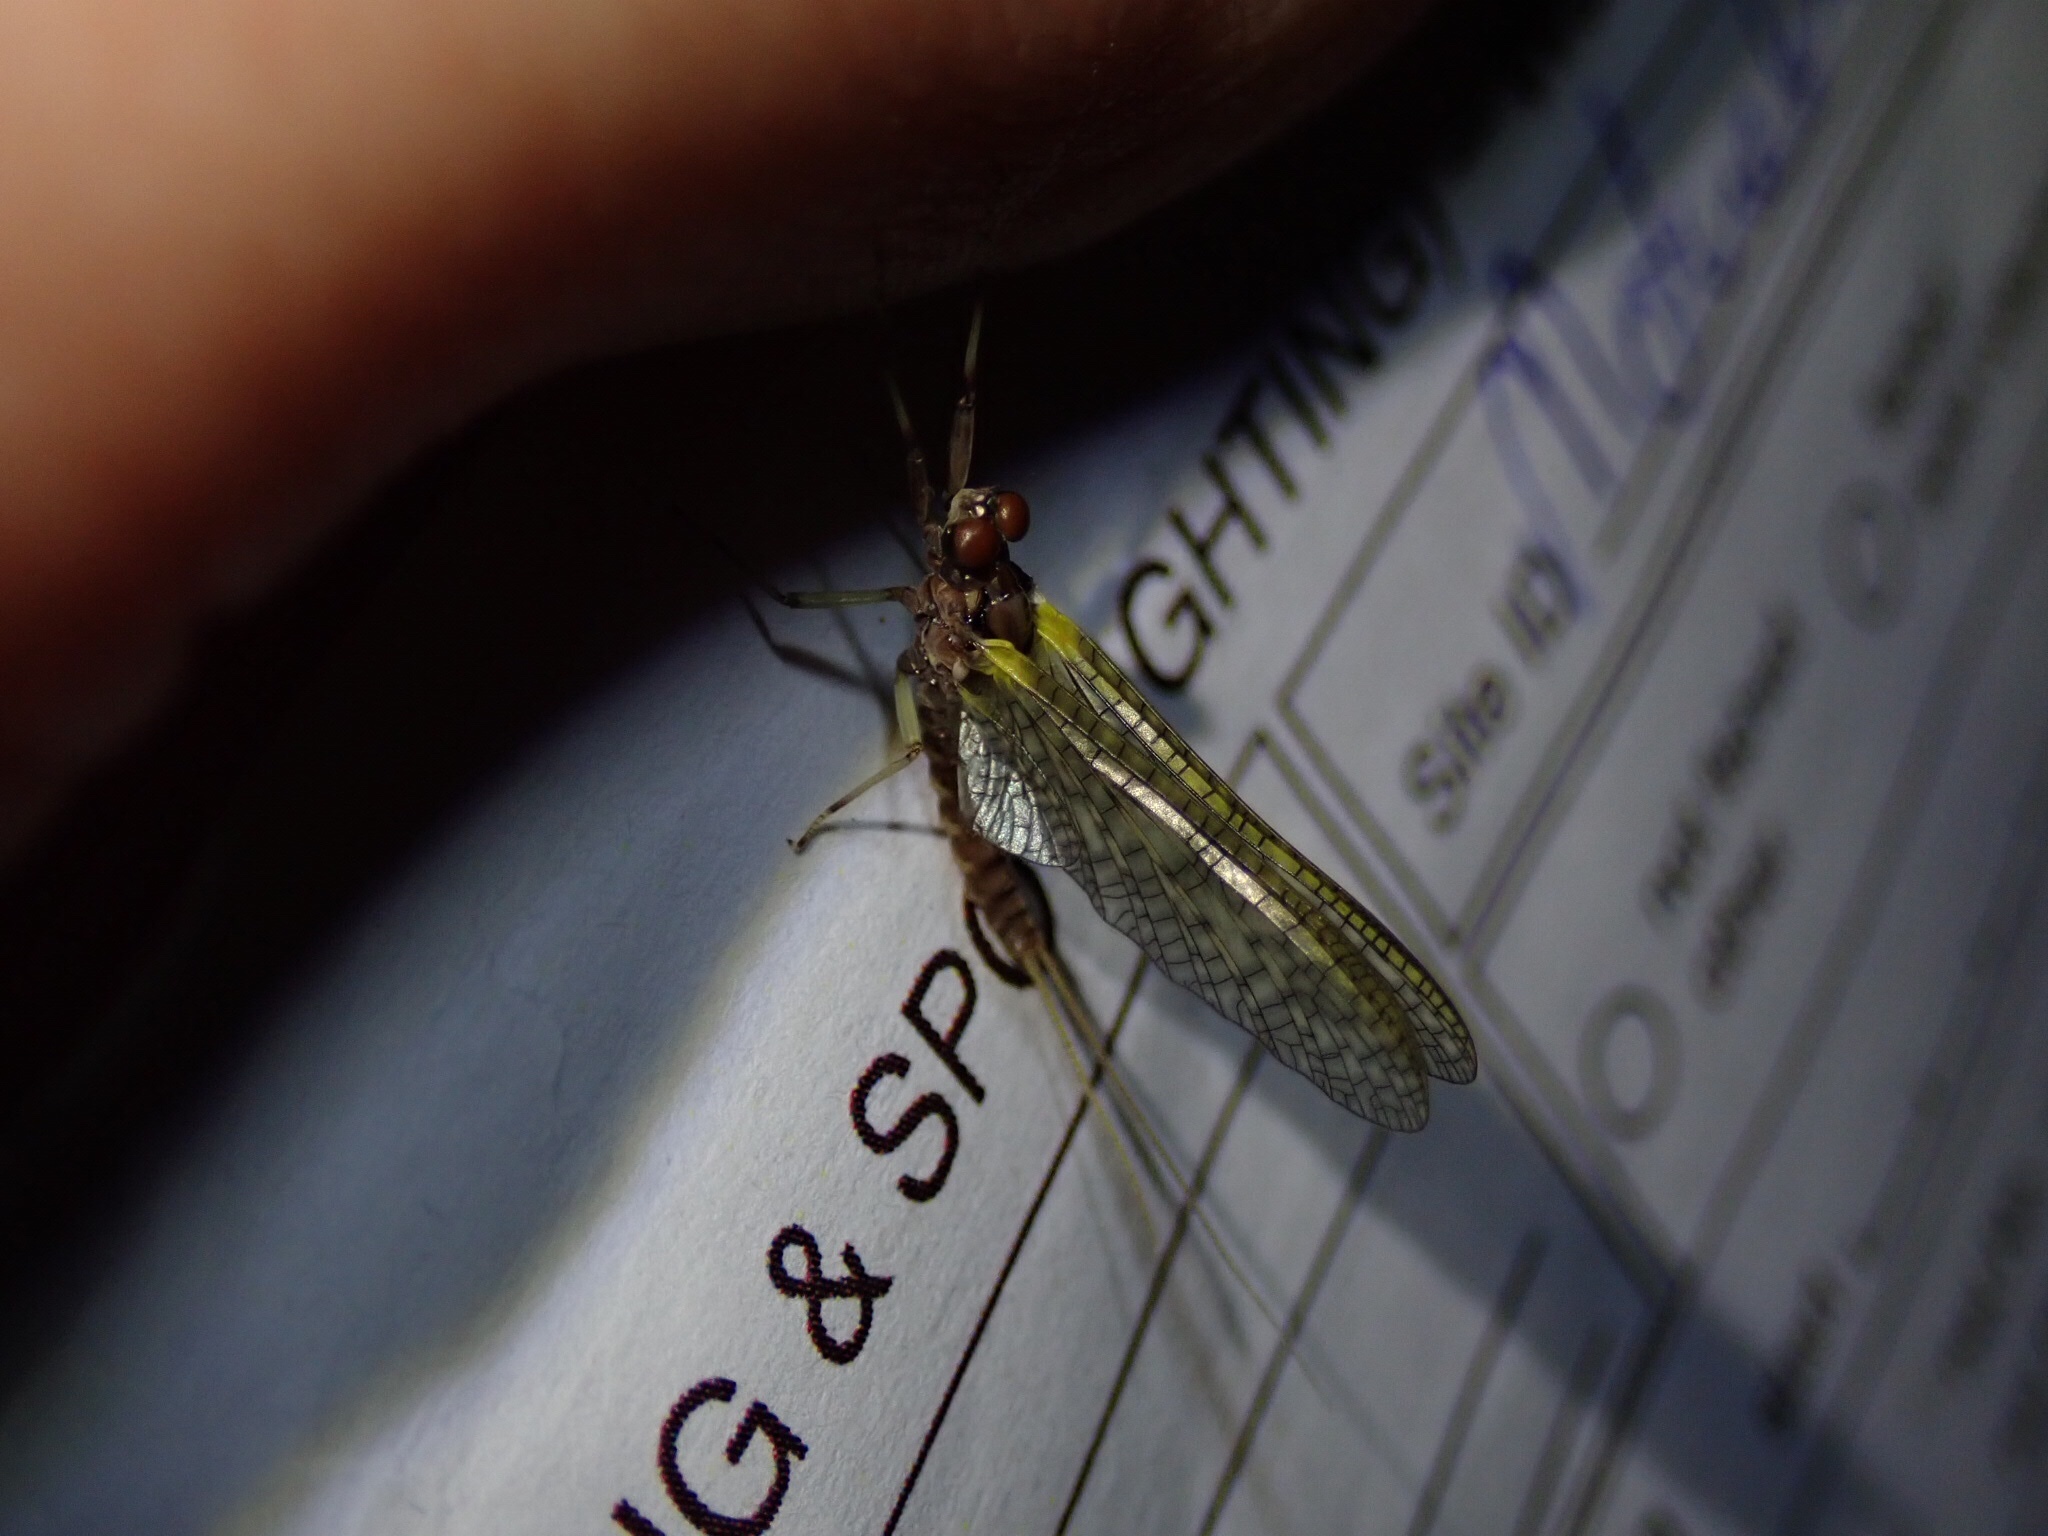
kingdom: Animalia
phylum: Arthropoda
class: Insecta
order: Ephemeroptera
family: Coloburiscidae
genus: Coloburiscus
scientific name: Coloburiscus humeralis
